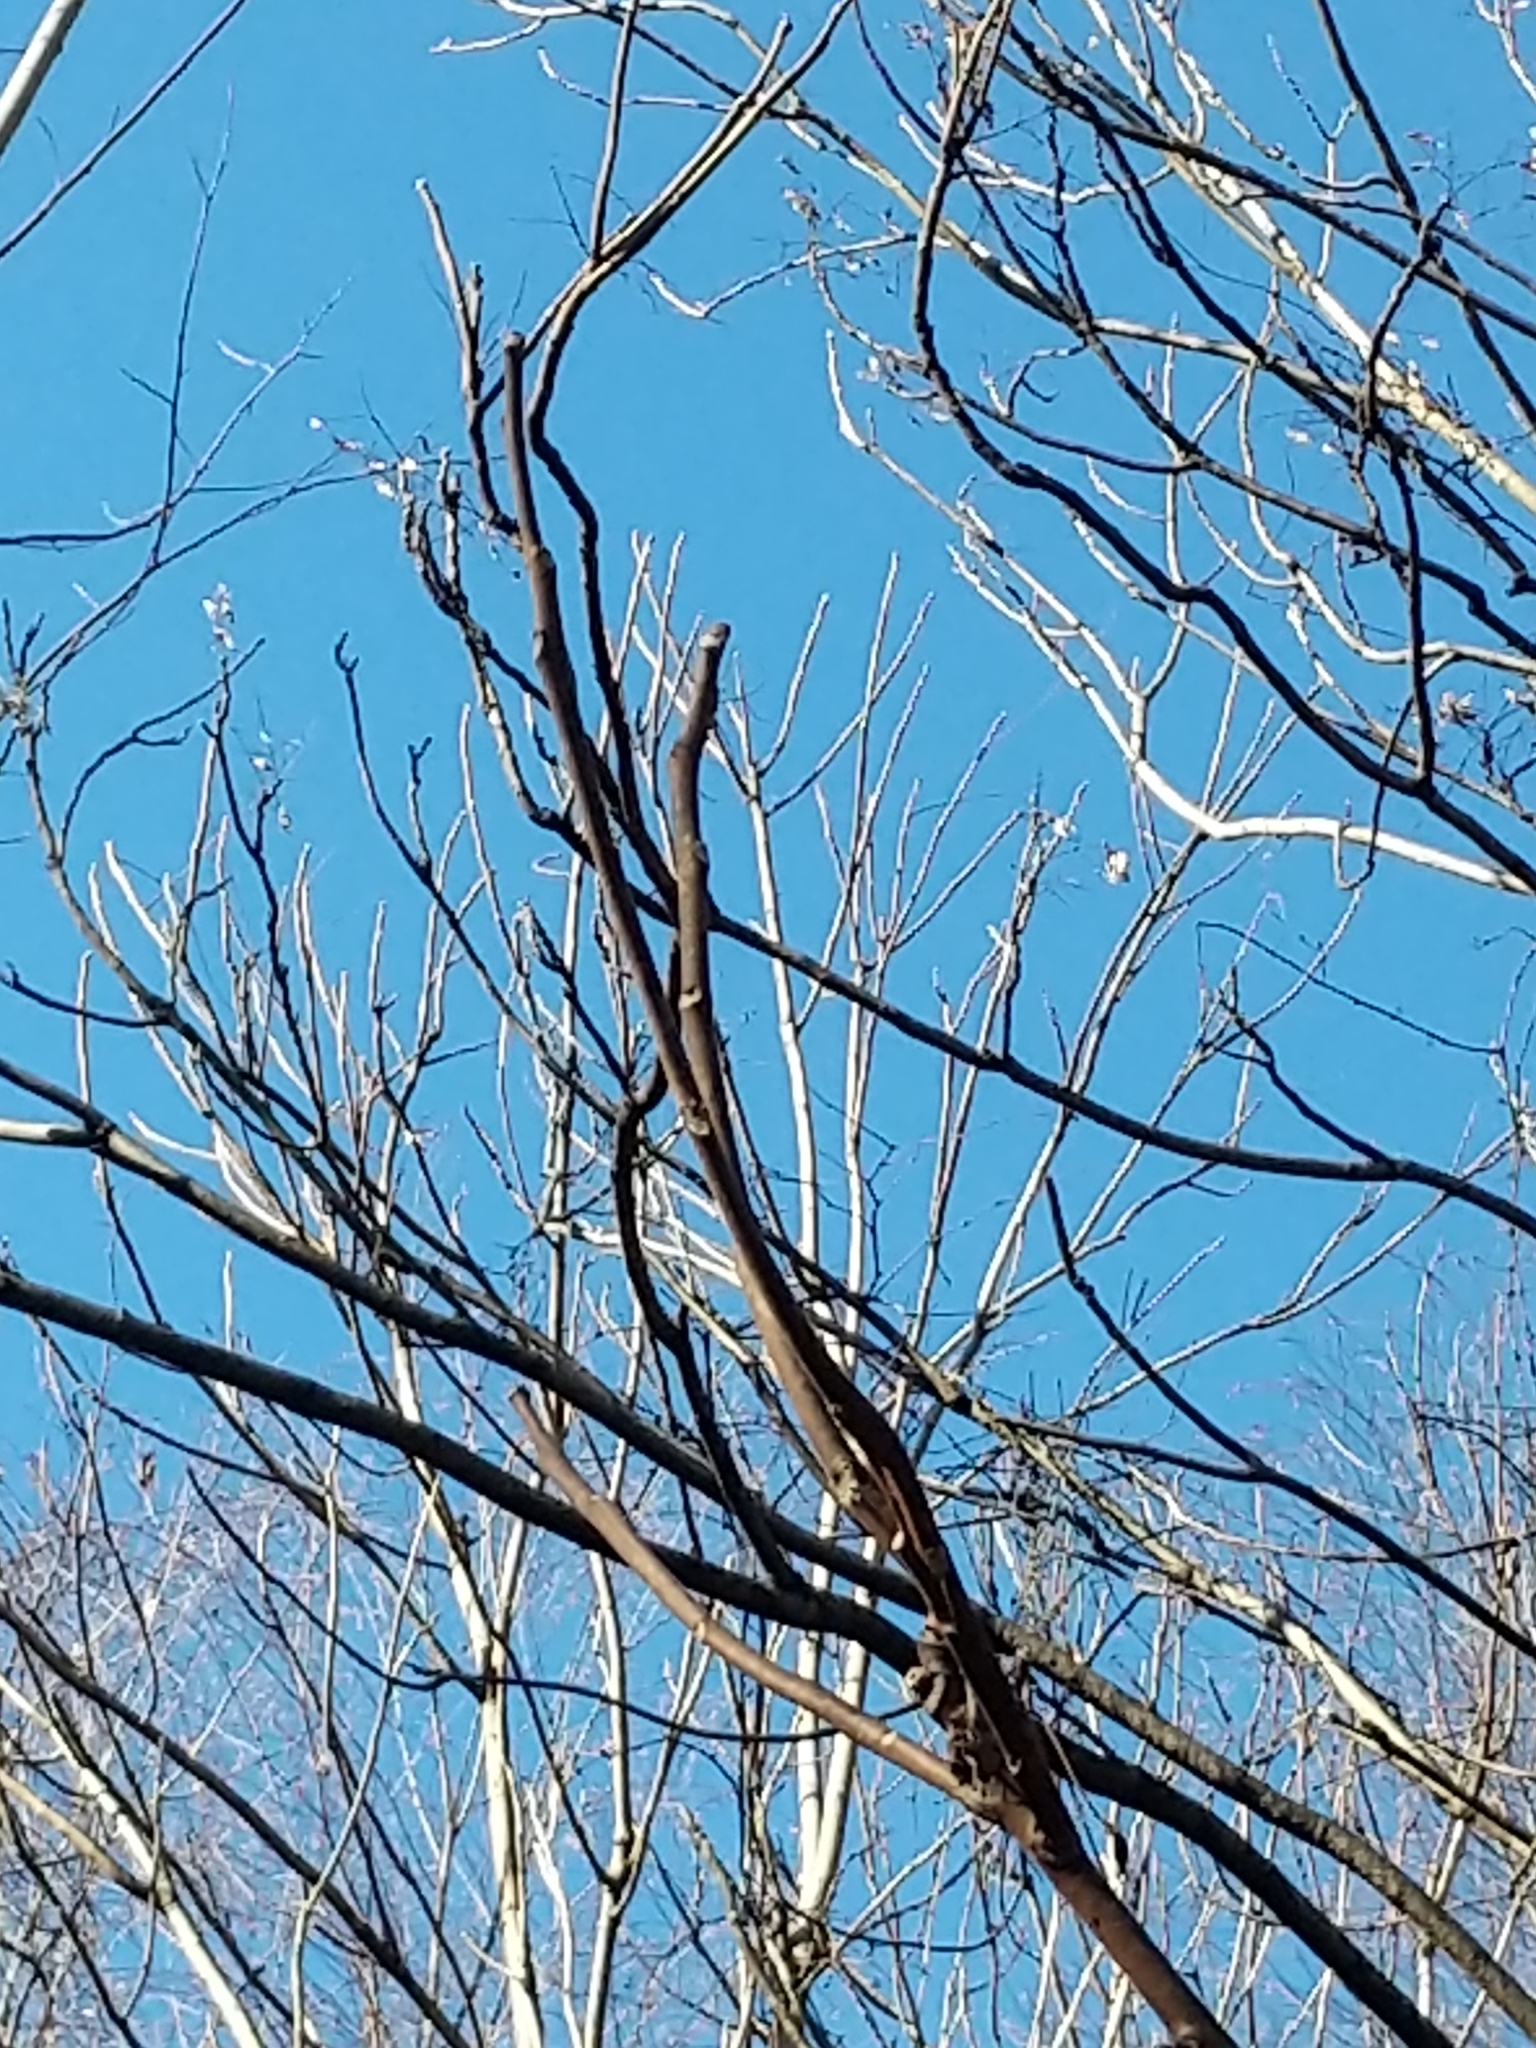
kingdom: Plantae
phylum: Tracheophyta
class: Magnoliopsida
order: Sapindales
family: Simaroubaceae
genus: Ailanthus
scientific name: Ailanthus altissima
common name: Tree-of-heaven
